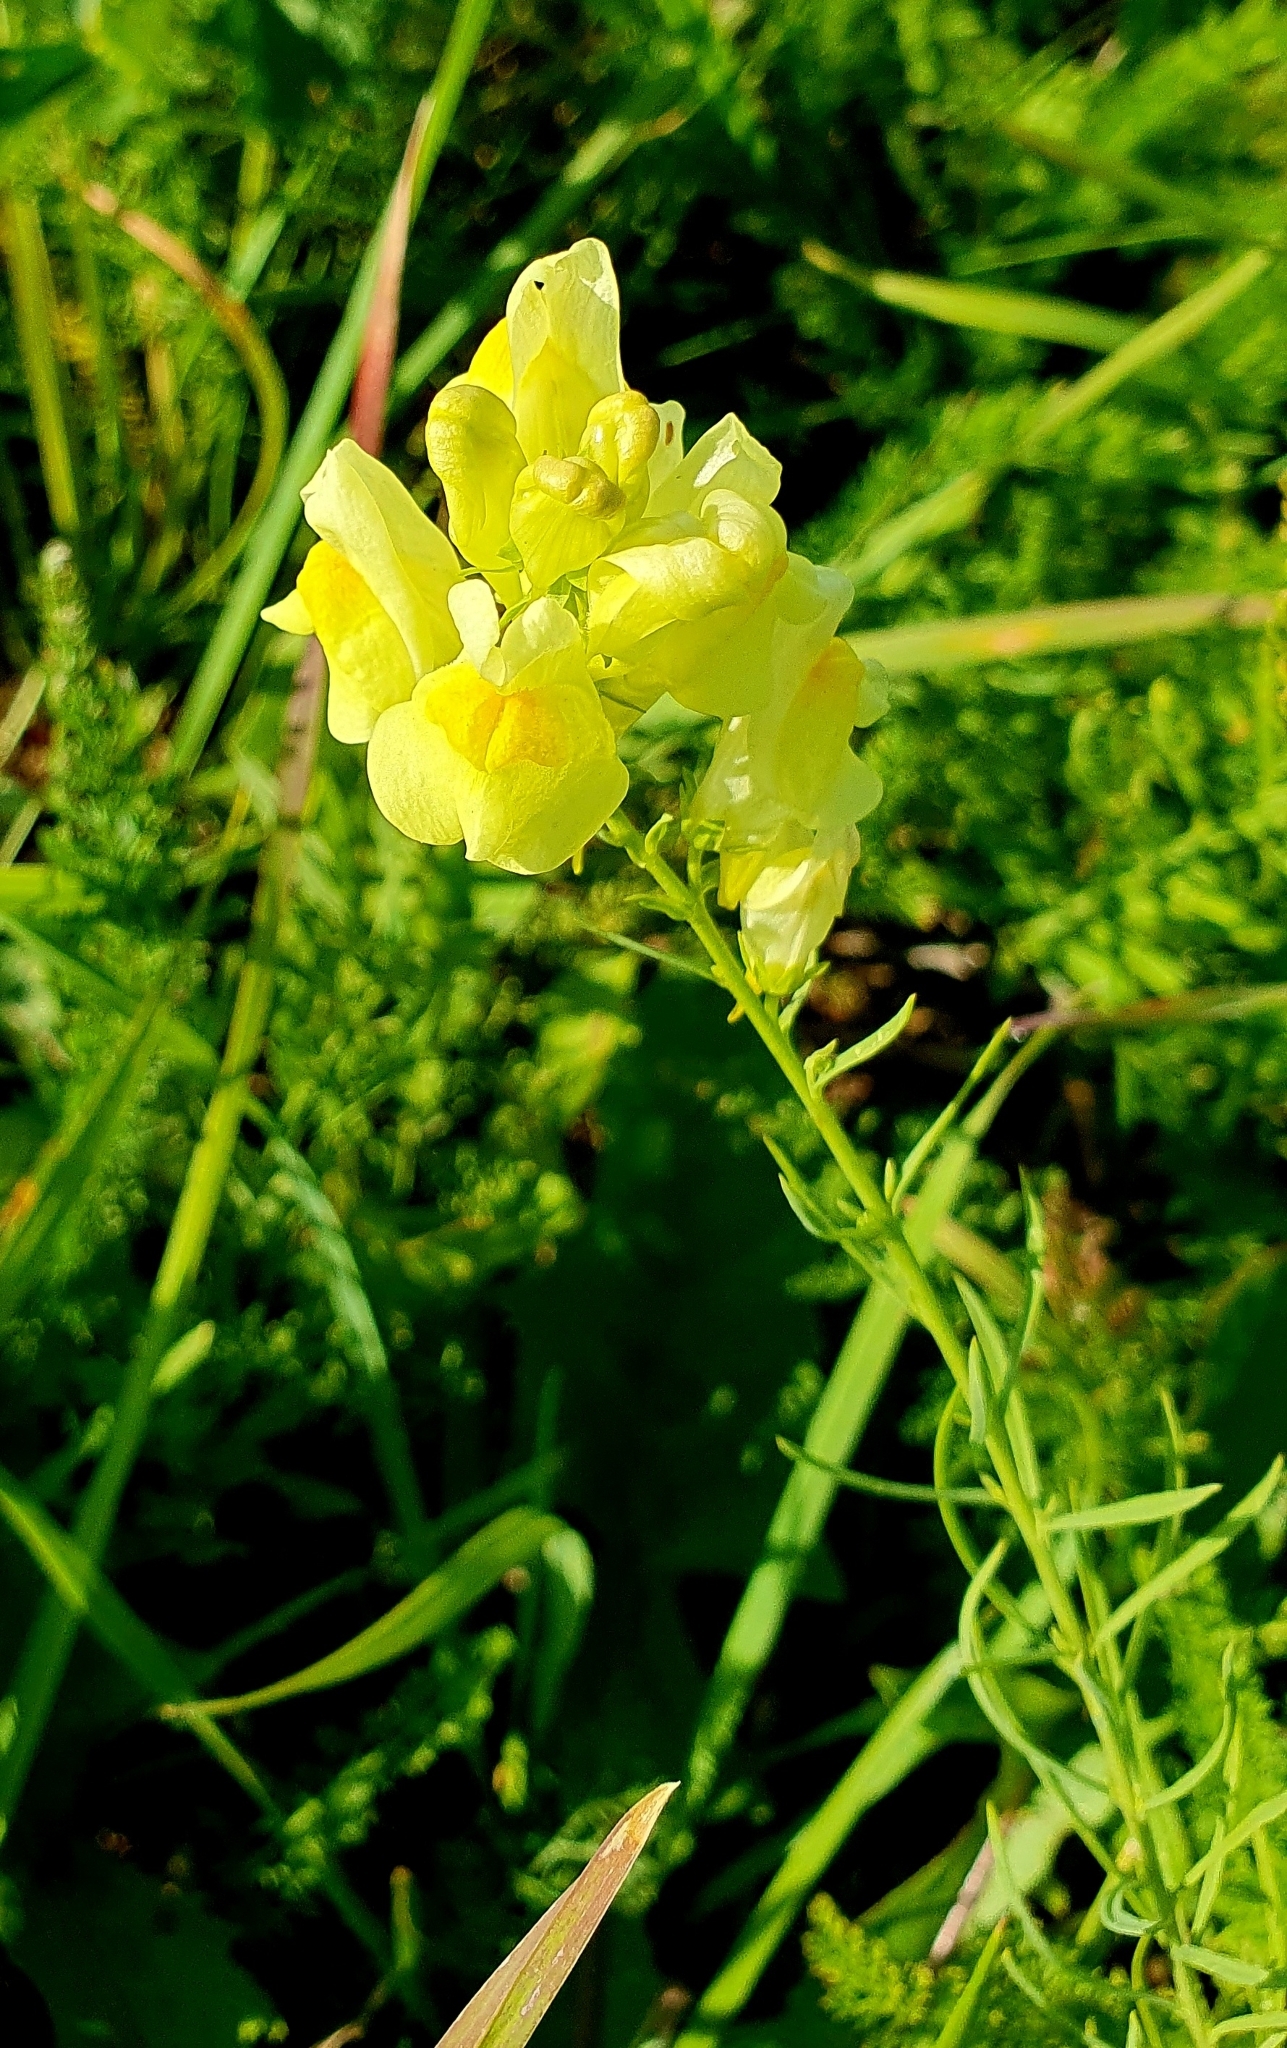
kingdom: Plantae
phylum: Tracheophyta
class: Magnoliopsida
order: Lamiales
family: Plantaginaceae
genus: Linaria
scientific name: Linaria vulgaris
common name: Butter and eggs
